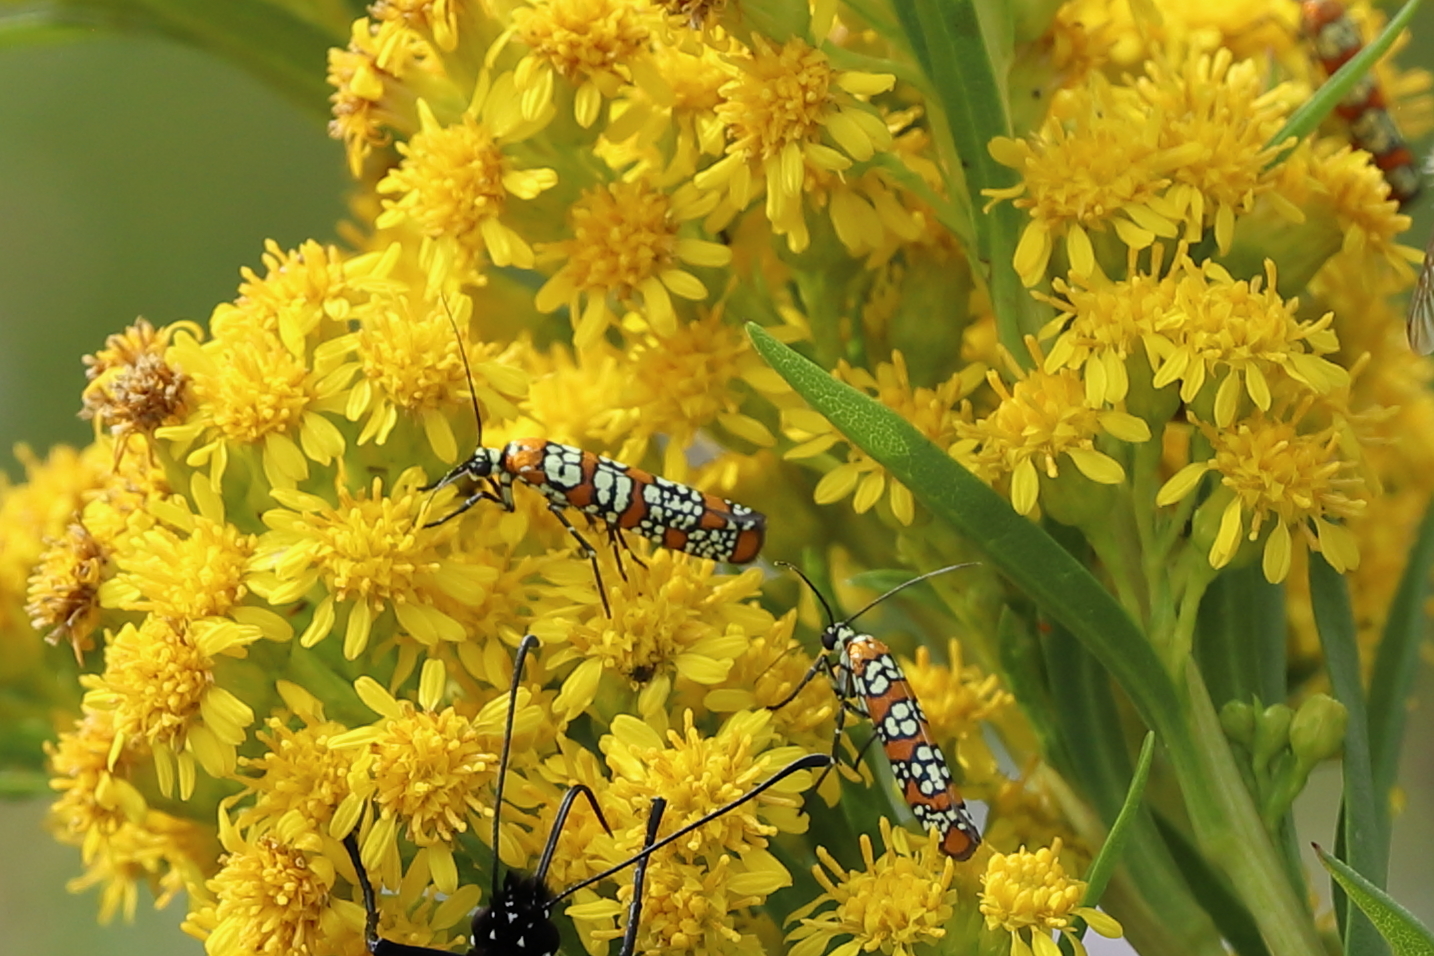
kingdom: Animalia
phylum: Arthropoda
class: Insecta
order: Lepidoptera
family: Attevidae
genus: Atteva
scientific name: Atteva punctella
